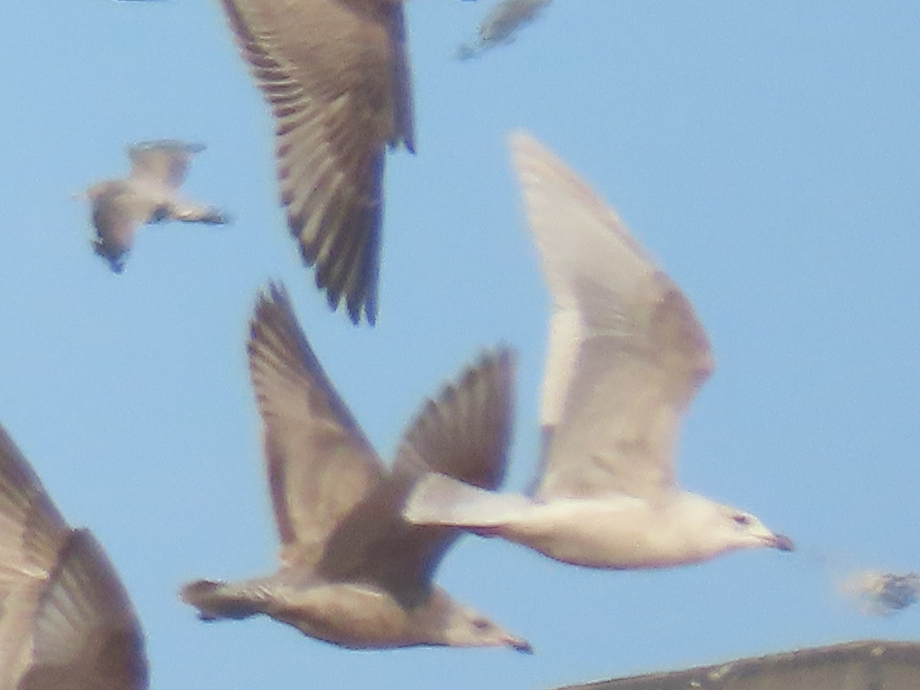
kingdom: Animalia
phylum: Chordata
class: Aves
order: Charadriiformes
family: Laridae
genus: Larus
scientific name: Larus glaucoides
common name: Iceland gull
